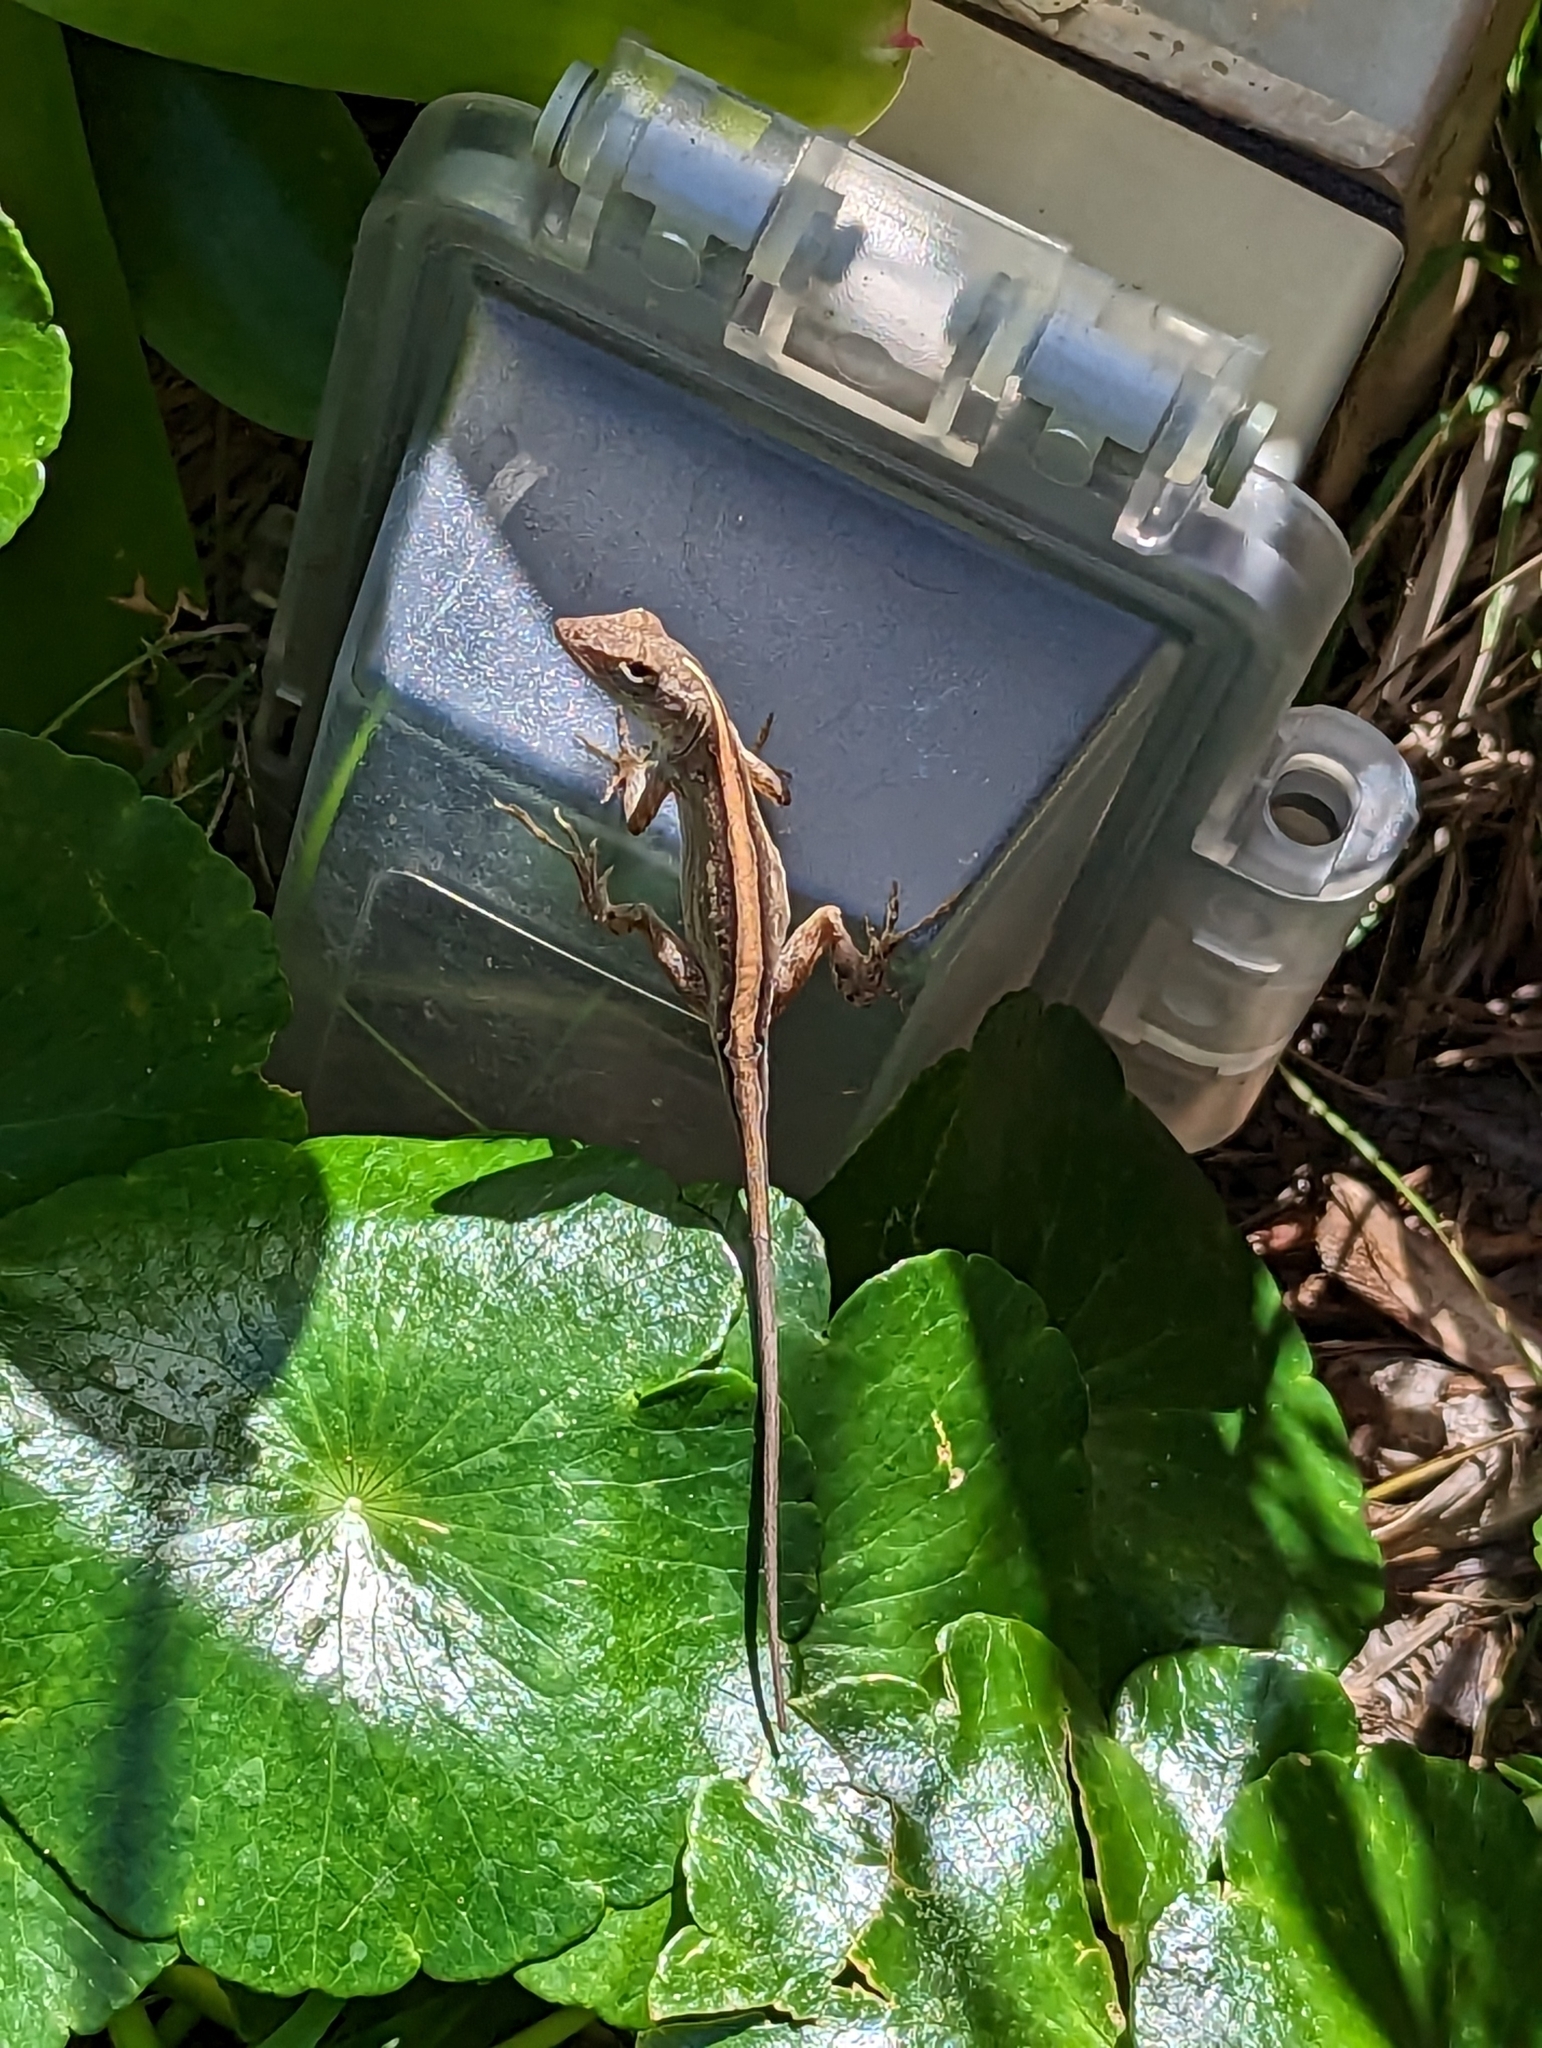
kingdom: Animalia
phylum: Chordata
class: Squamata
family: Dactyloidae
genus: Anolis
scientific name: Anolis sagrei
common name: Brown anole
